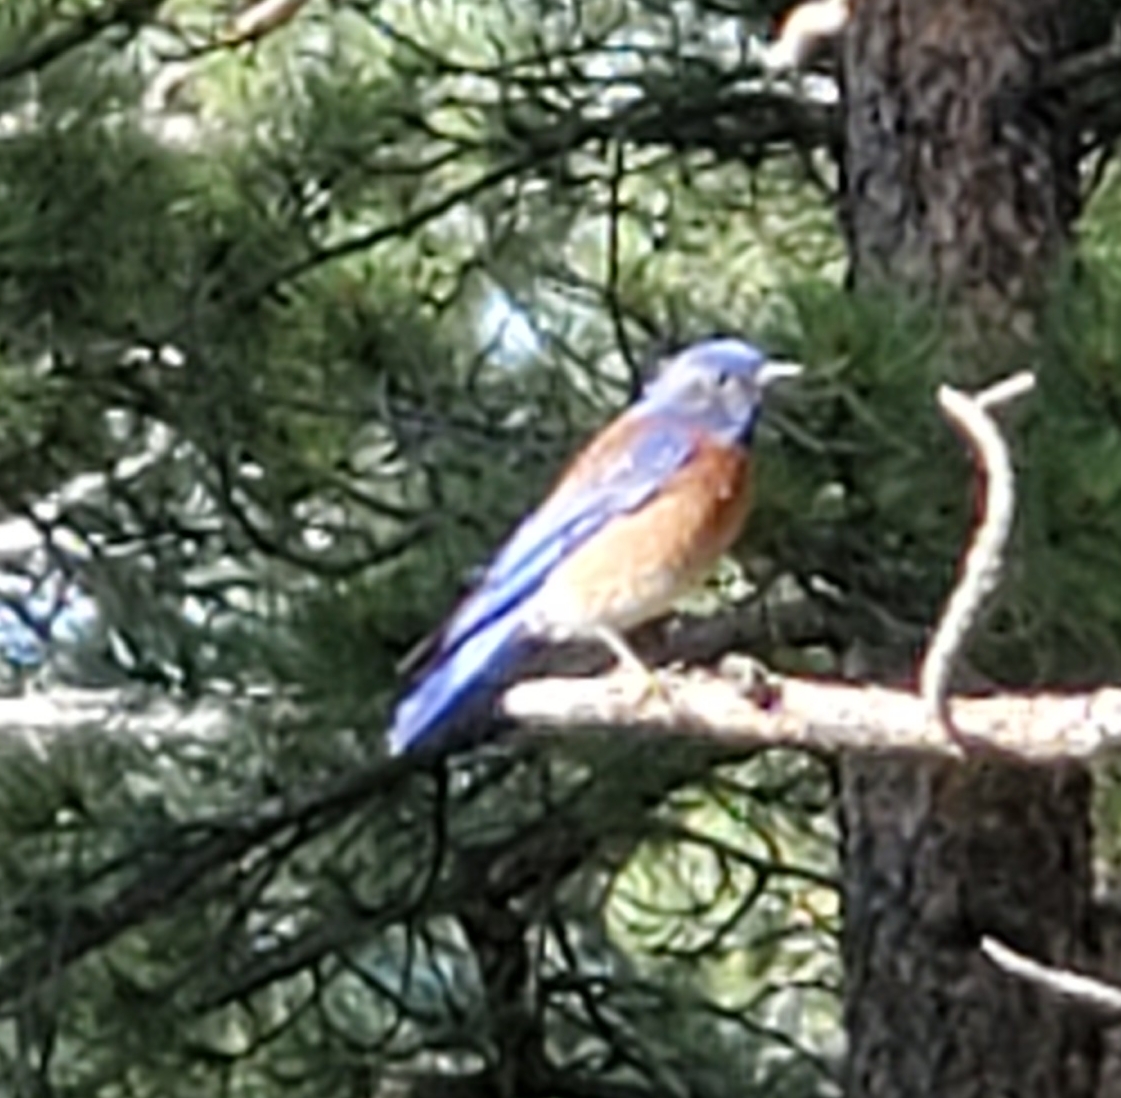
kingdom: Animalia
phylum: Chordata
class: Aves
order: Passeriformes
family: Turdidae
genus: Sialia
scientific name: Sialia mexicana
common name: Western bluebird
